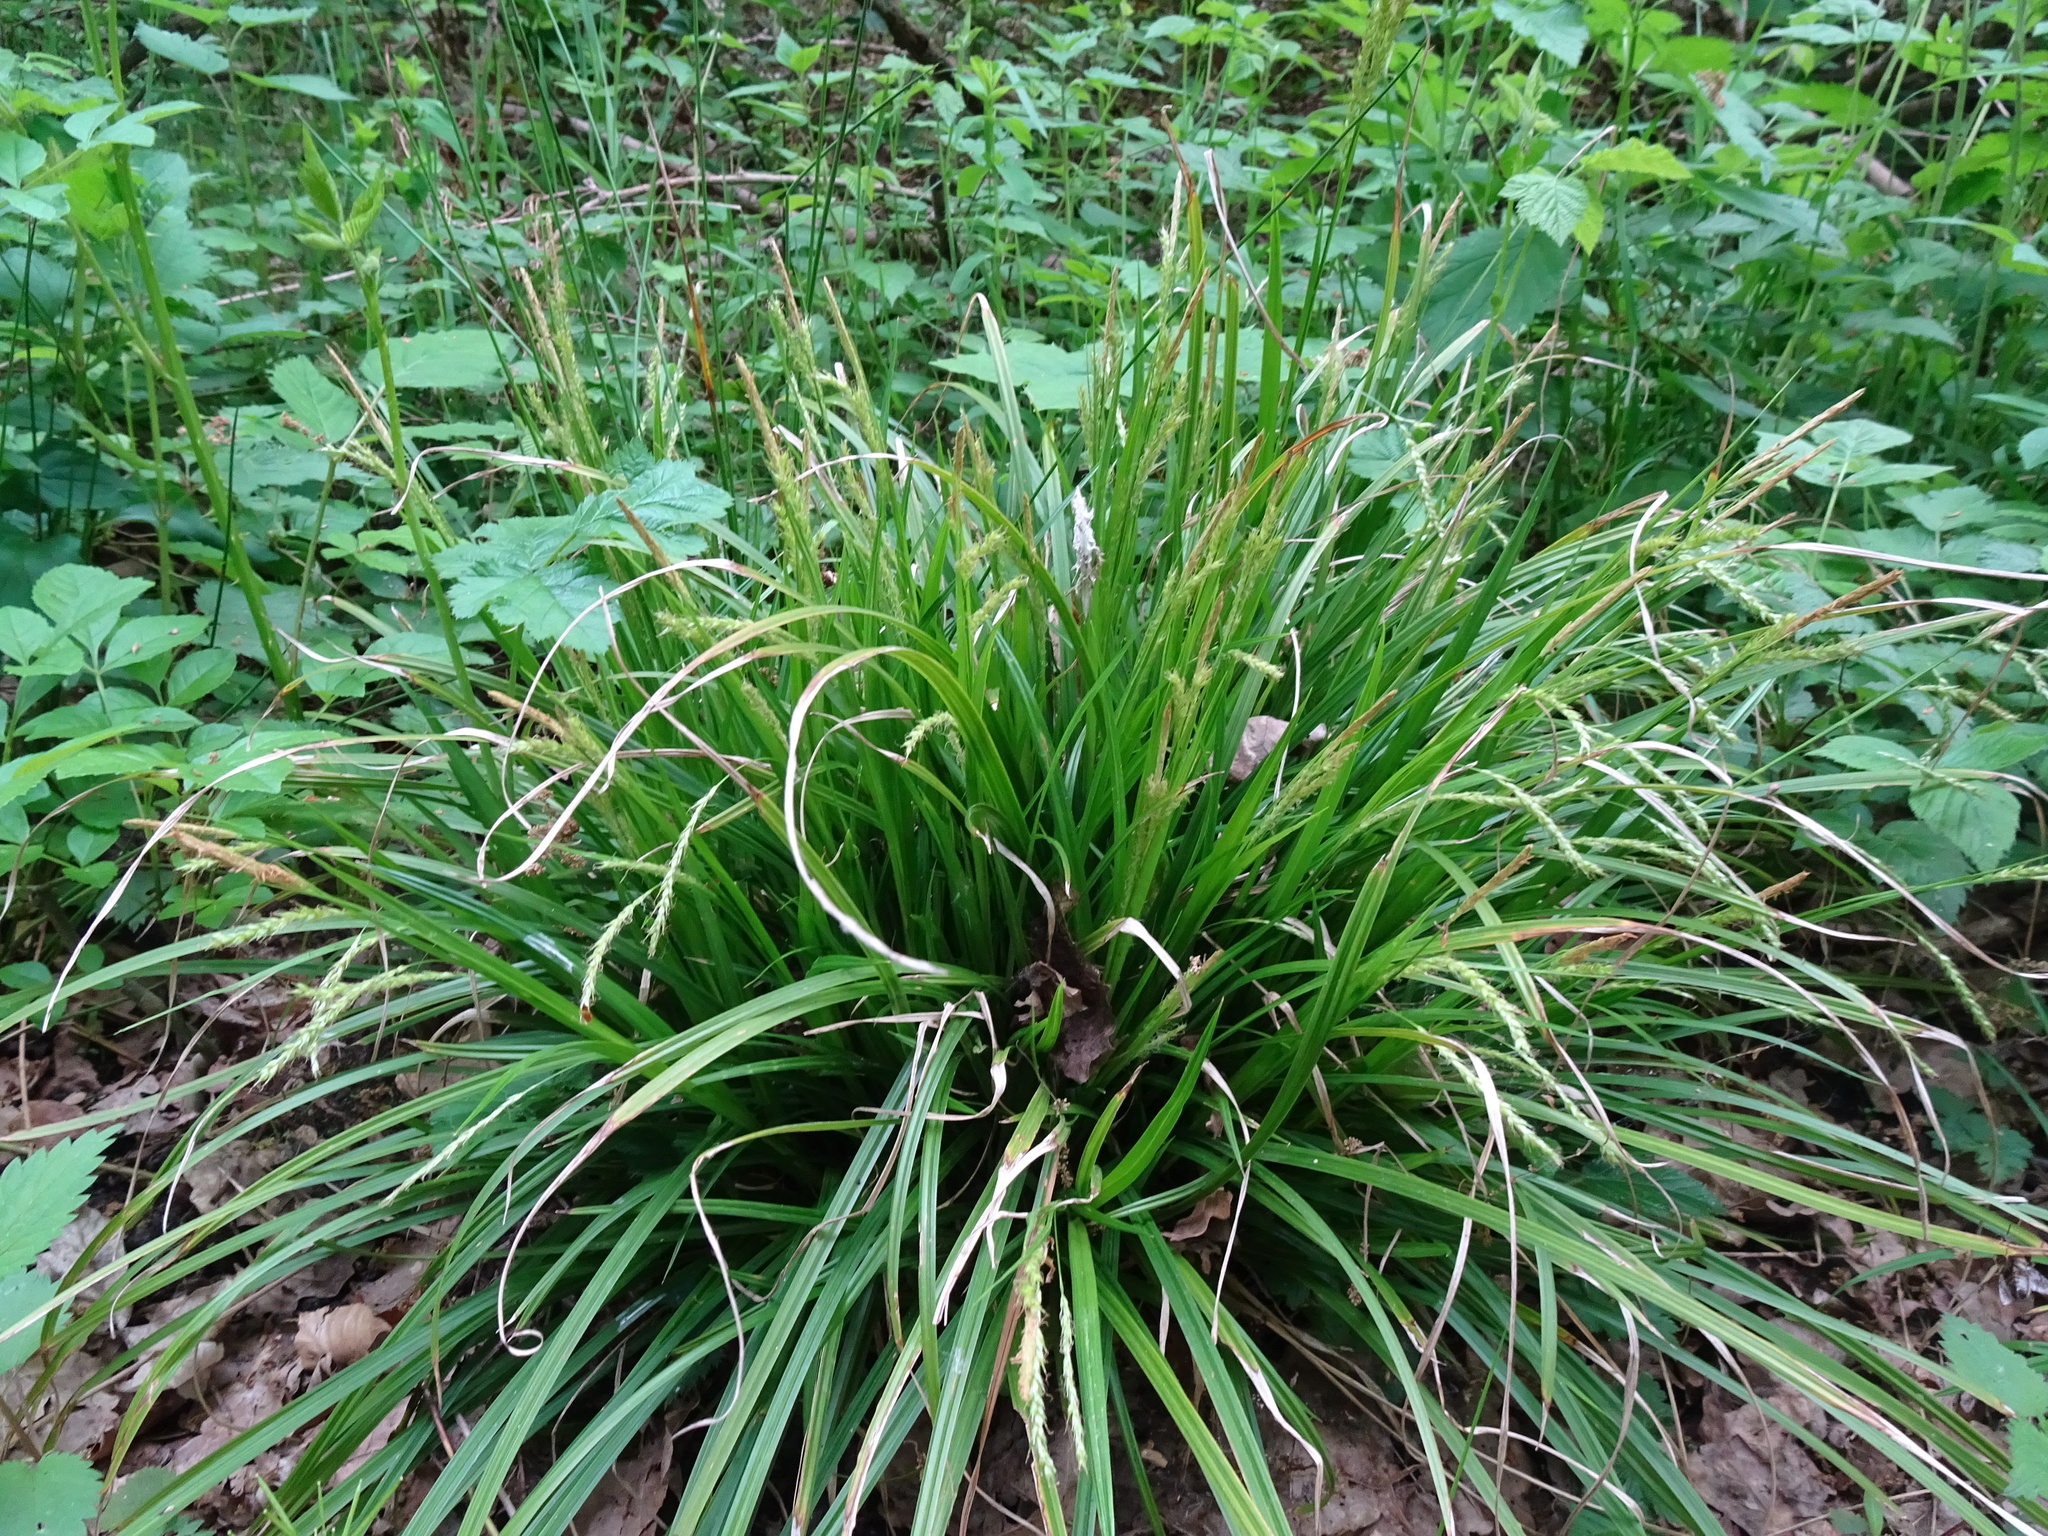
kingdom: Plantae
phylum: Tracheophyta
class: Liliopsida
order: Poales
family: Cyperaceae
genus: Carex
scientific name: Carex sylvatica
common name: Wood-sedge
